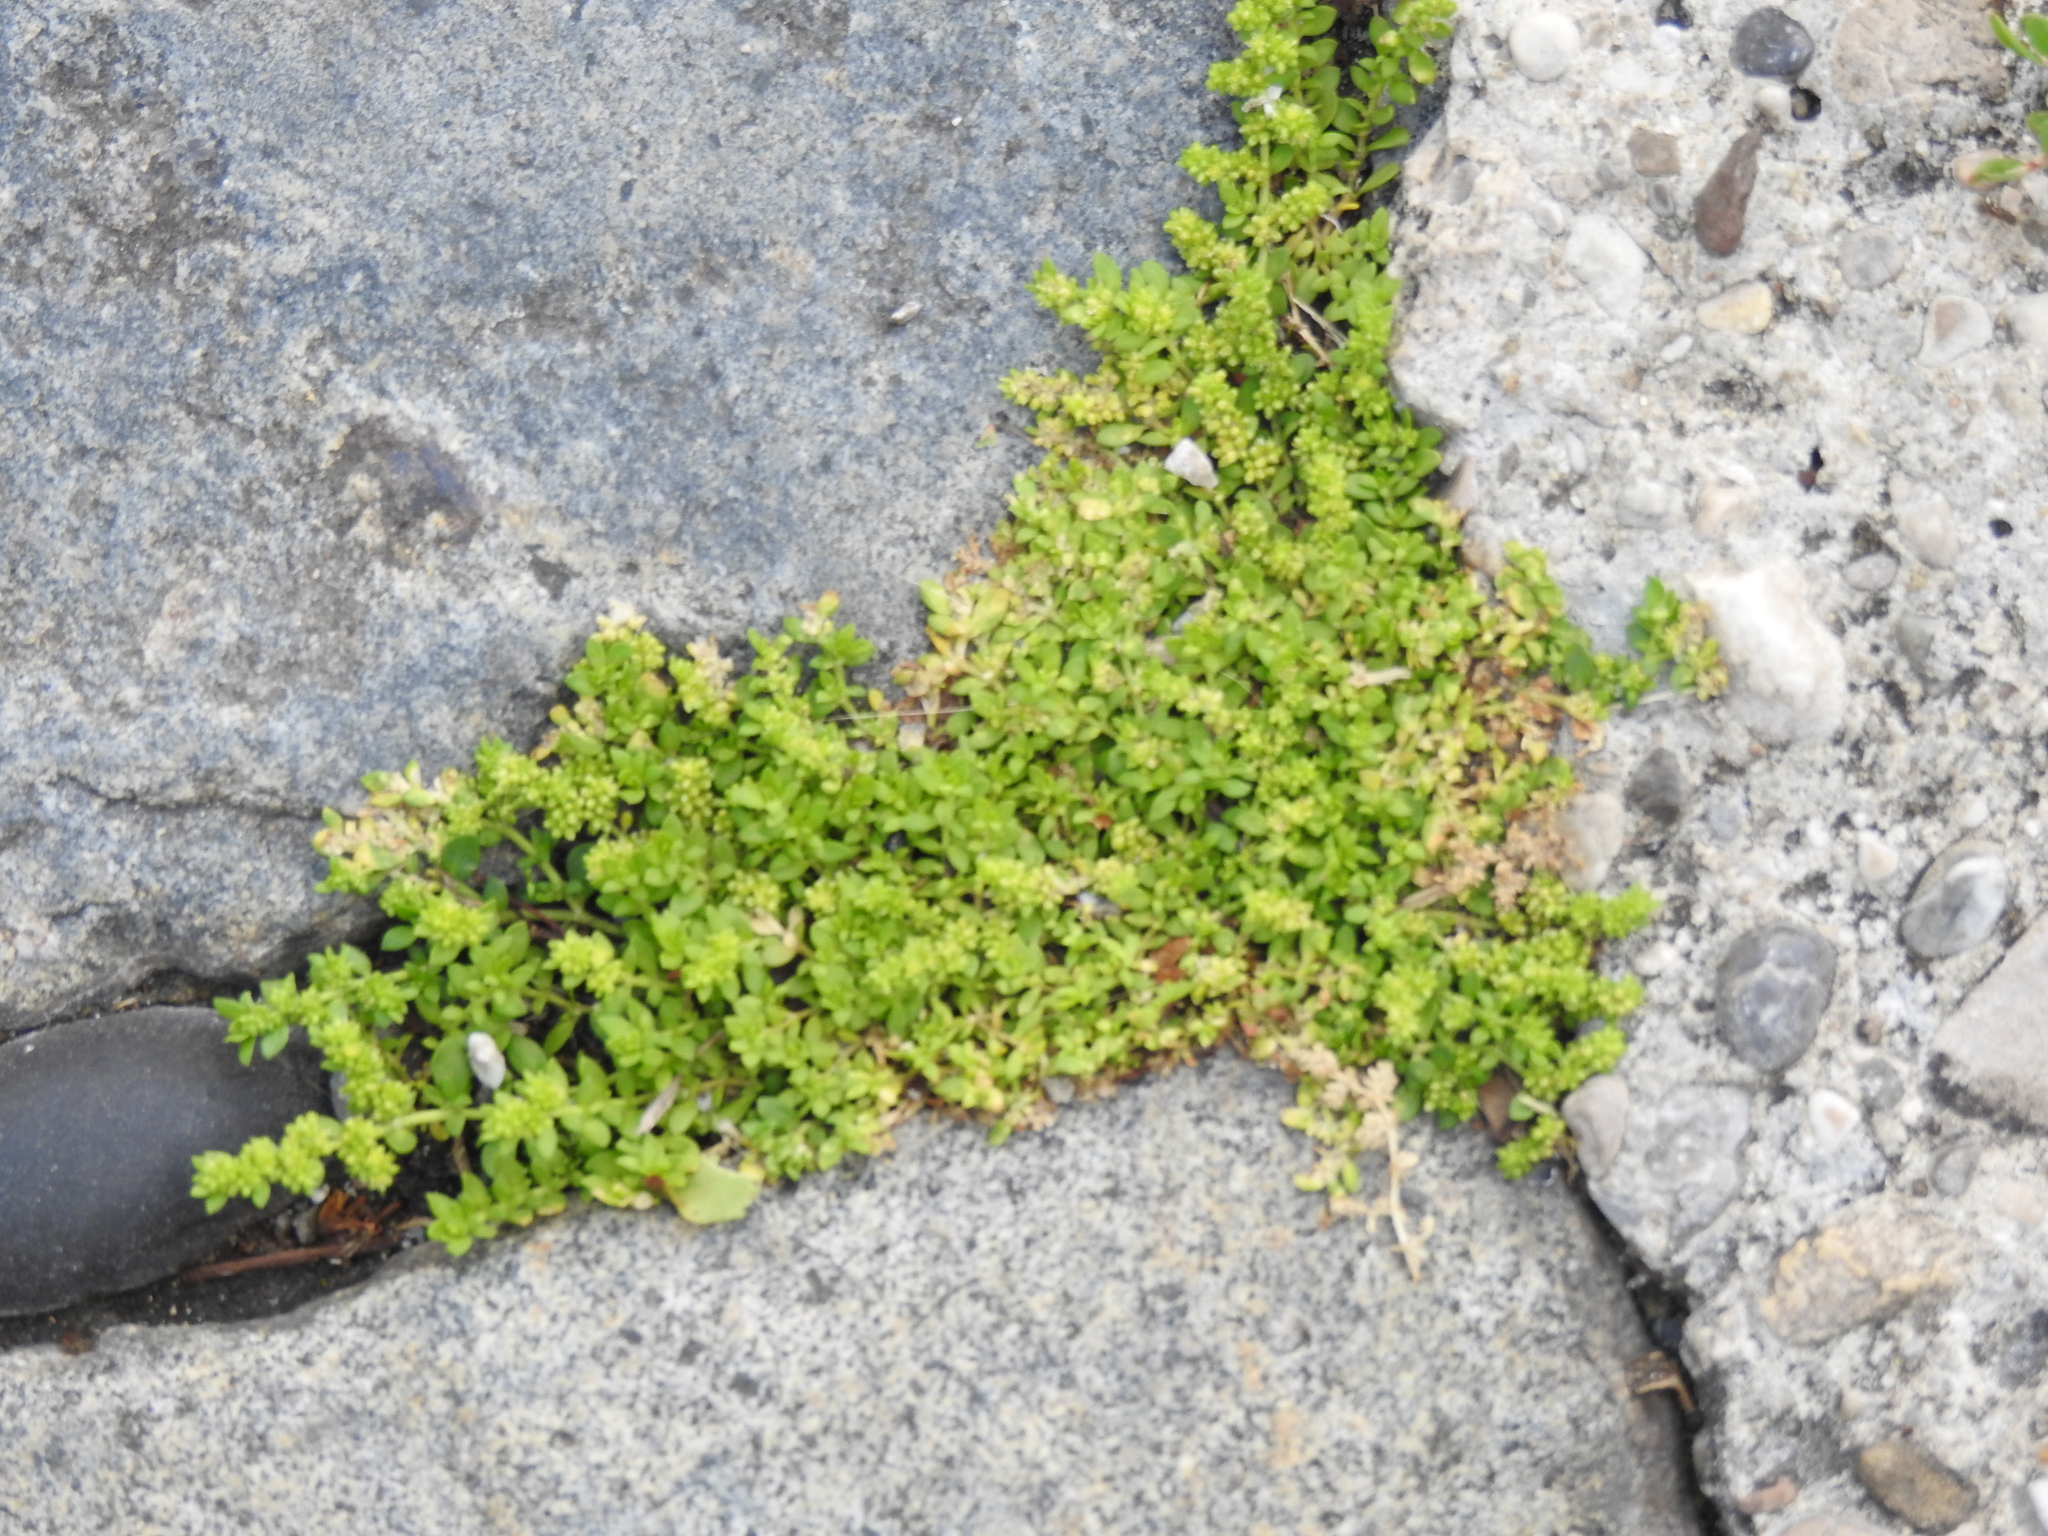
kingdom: Plantae
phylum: Tracheophyta
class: Magnoliopsida
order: Caryophyllales
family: Caryophyllaceae
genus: Herniaria
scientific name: Herniaria glabra
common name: Smooth rupturewort
